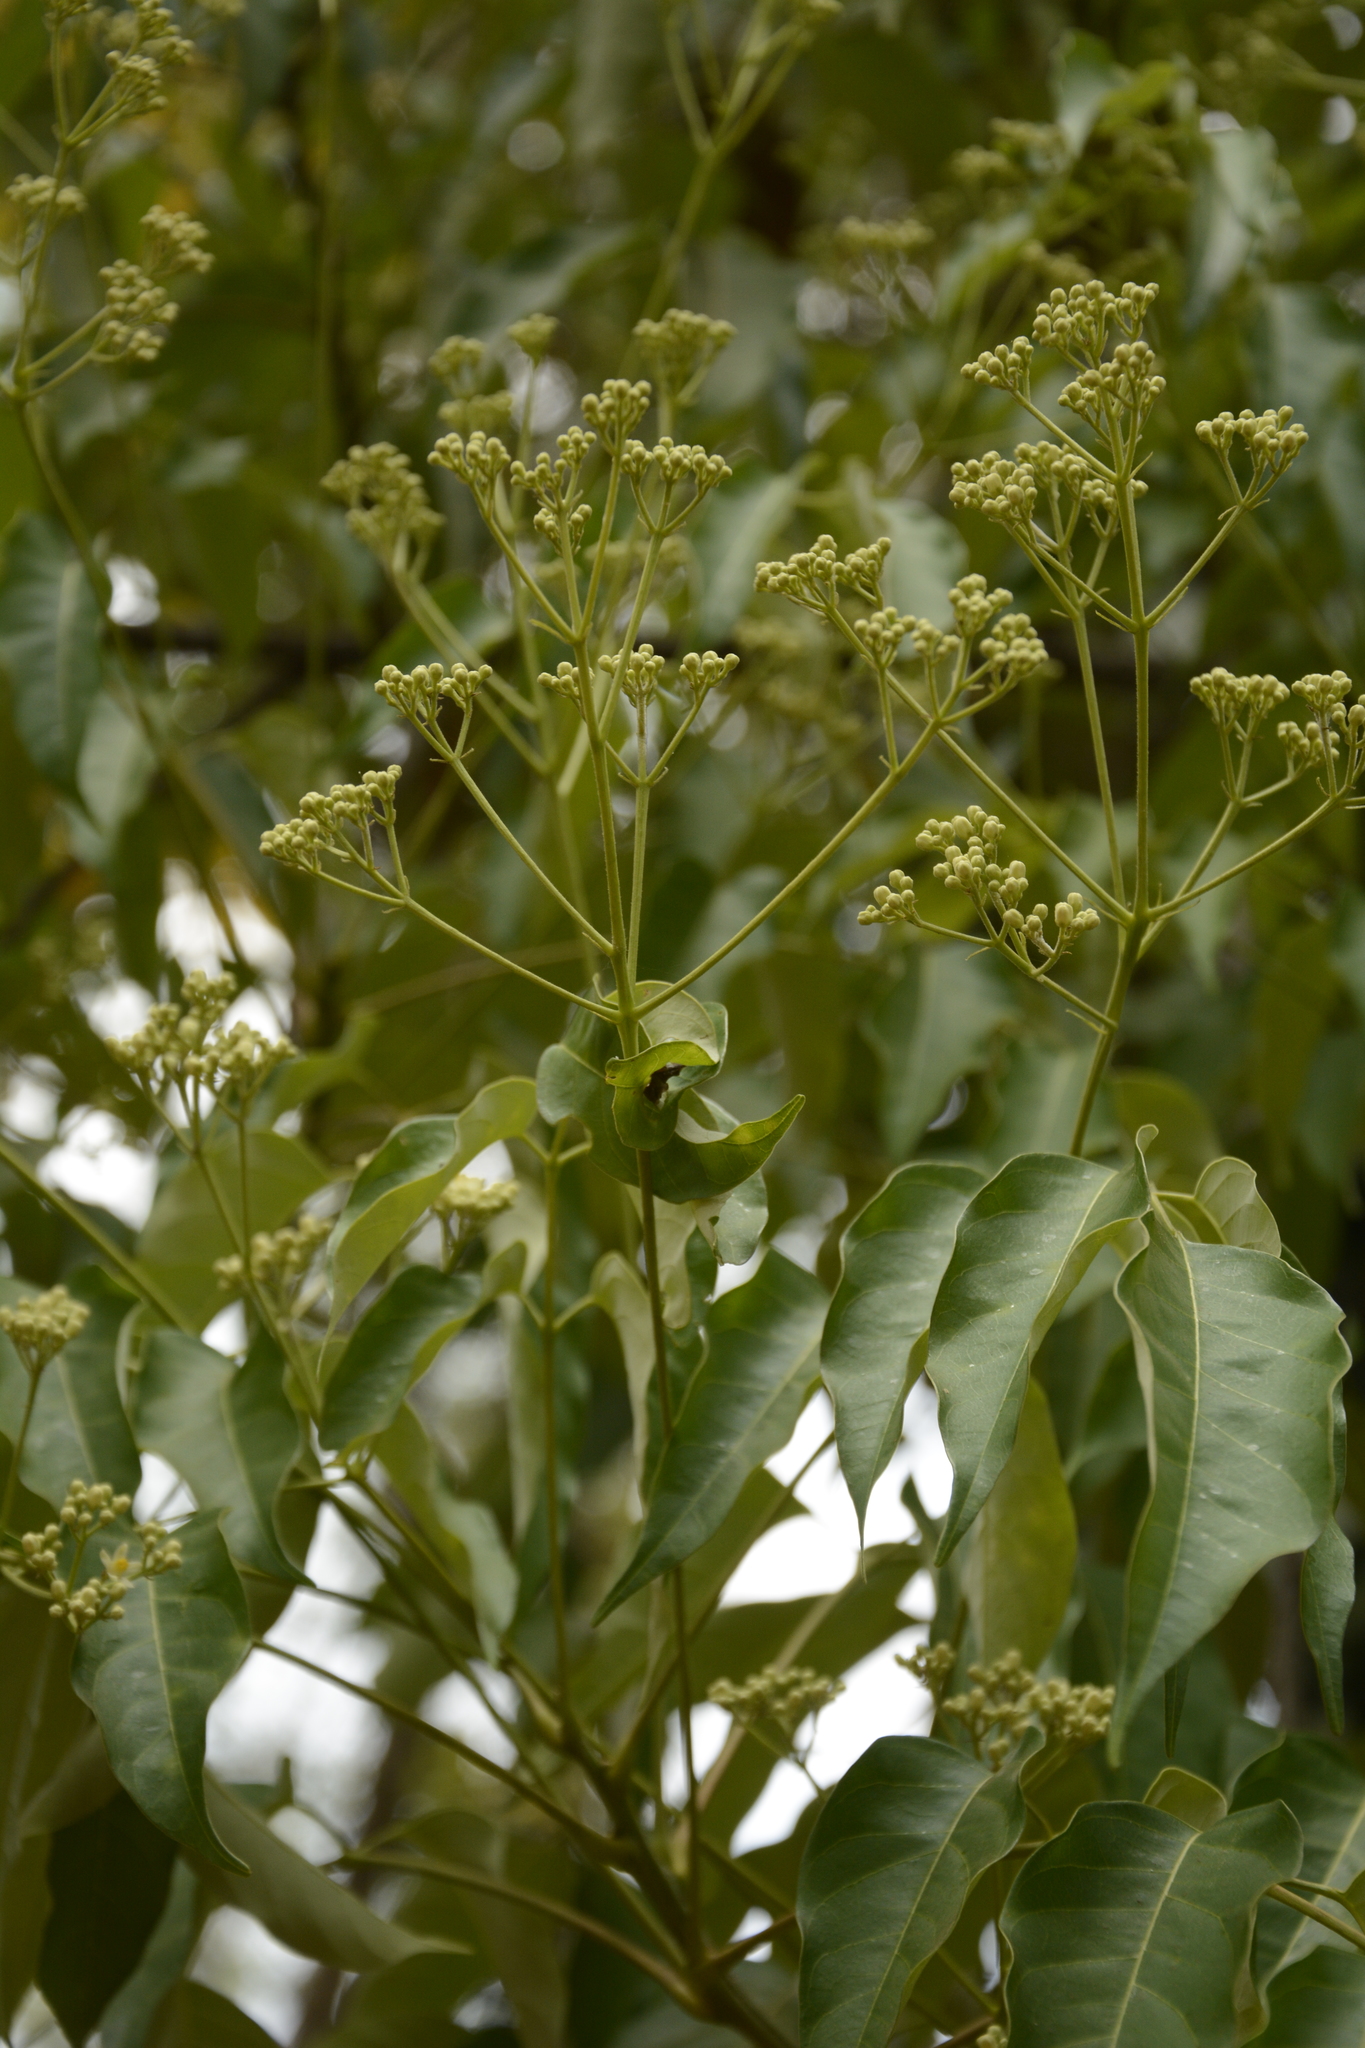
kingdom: Plantae
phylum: Tracheophyta
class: Magnoliopsida
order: Sapindales
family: Meliaceae
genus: Heynea
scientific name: Heynea trijuga
